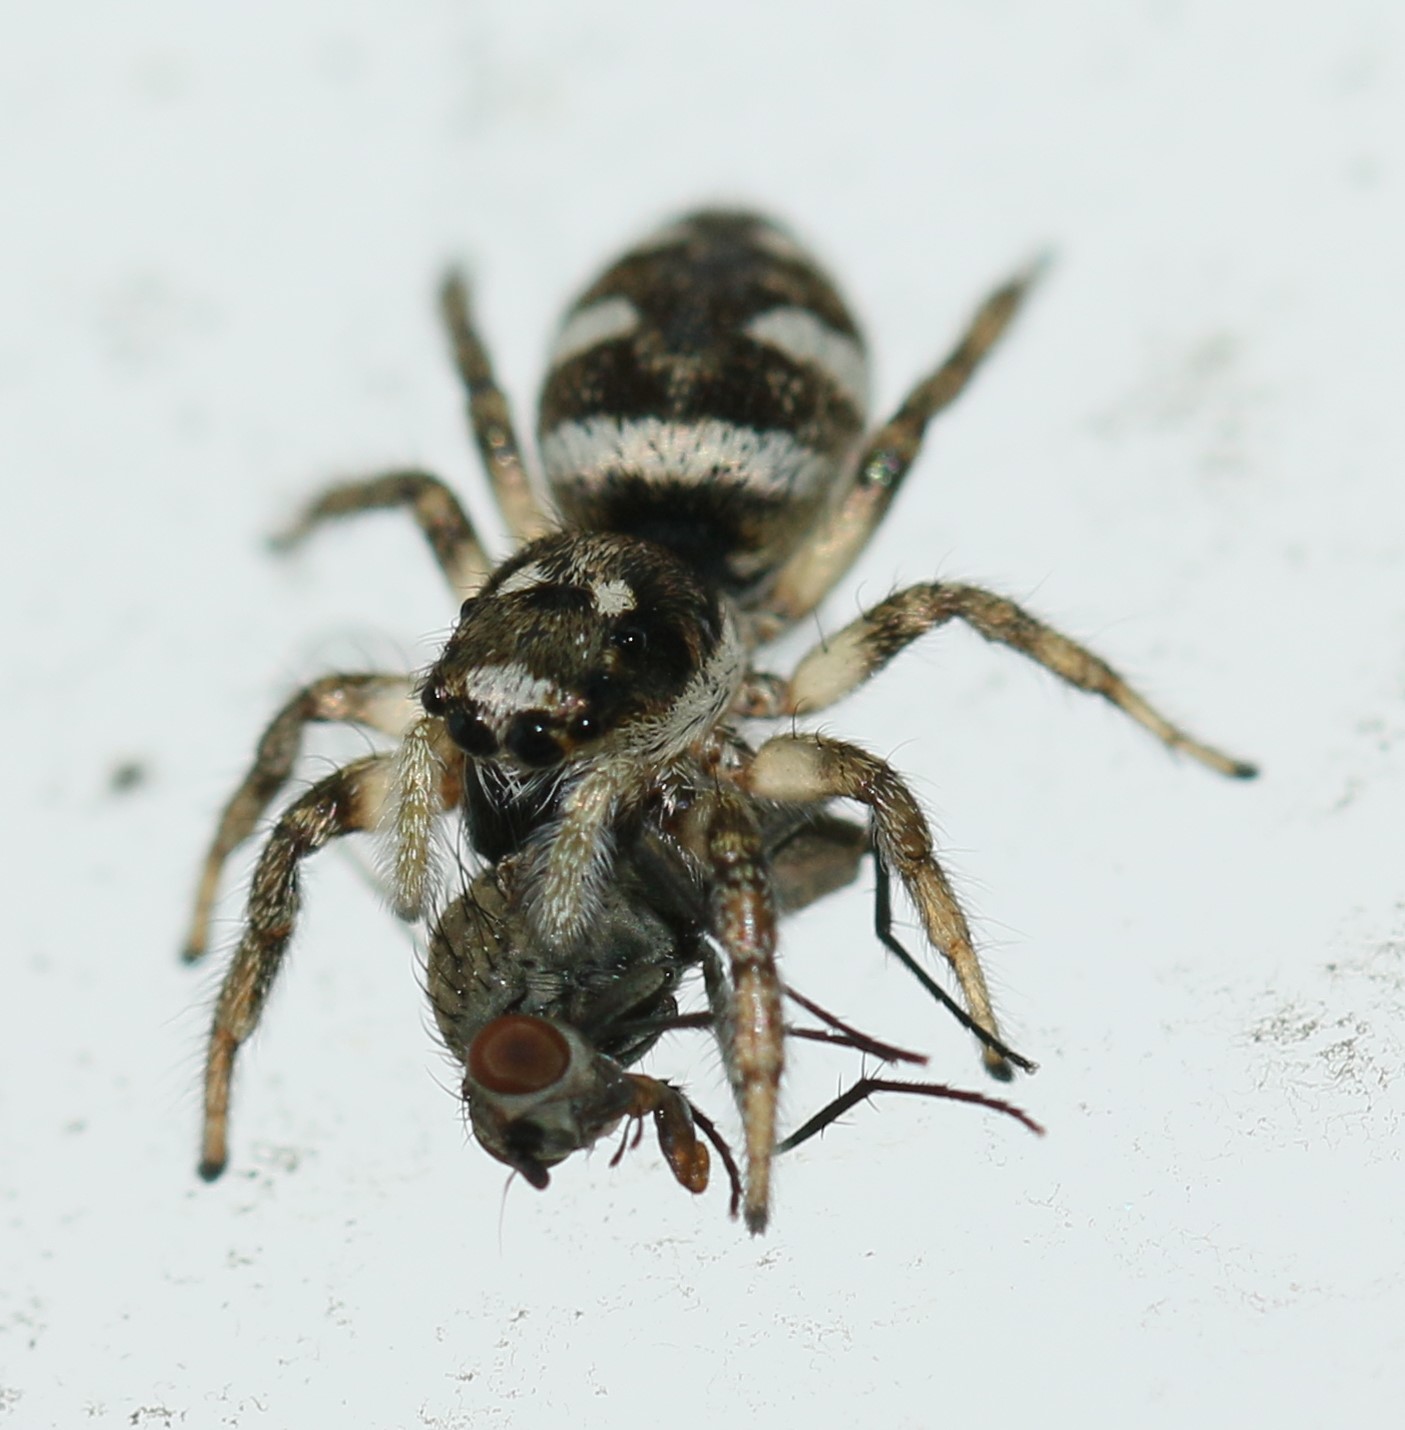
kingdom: Animalia
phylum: Arthropoda
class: Arachnida
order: Araneae
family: Salticidae
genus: Salticus
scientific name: Salticus scenicus
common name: Zebra jumper
